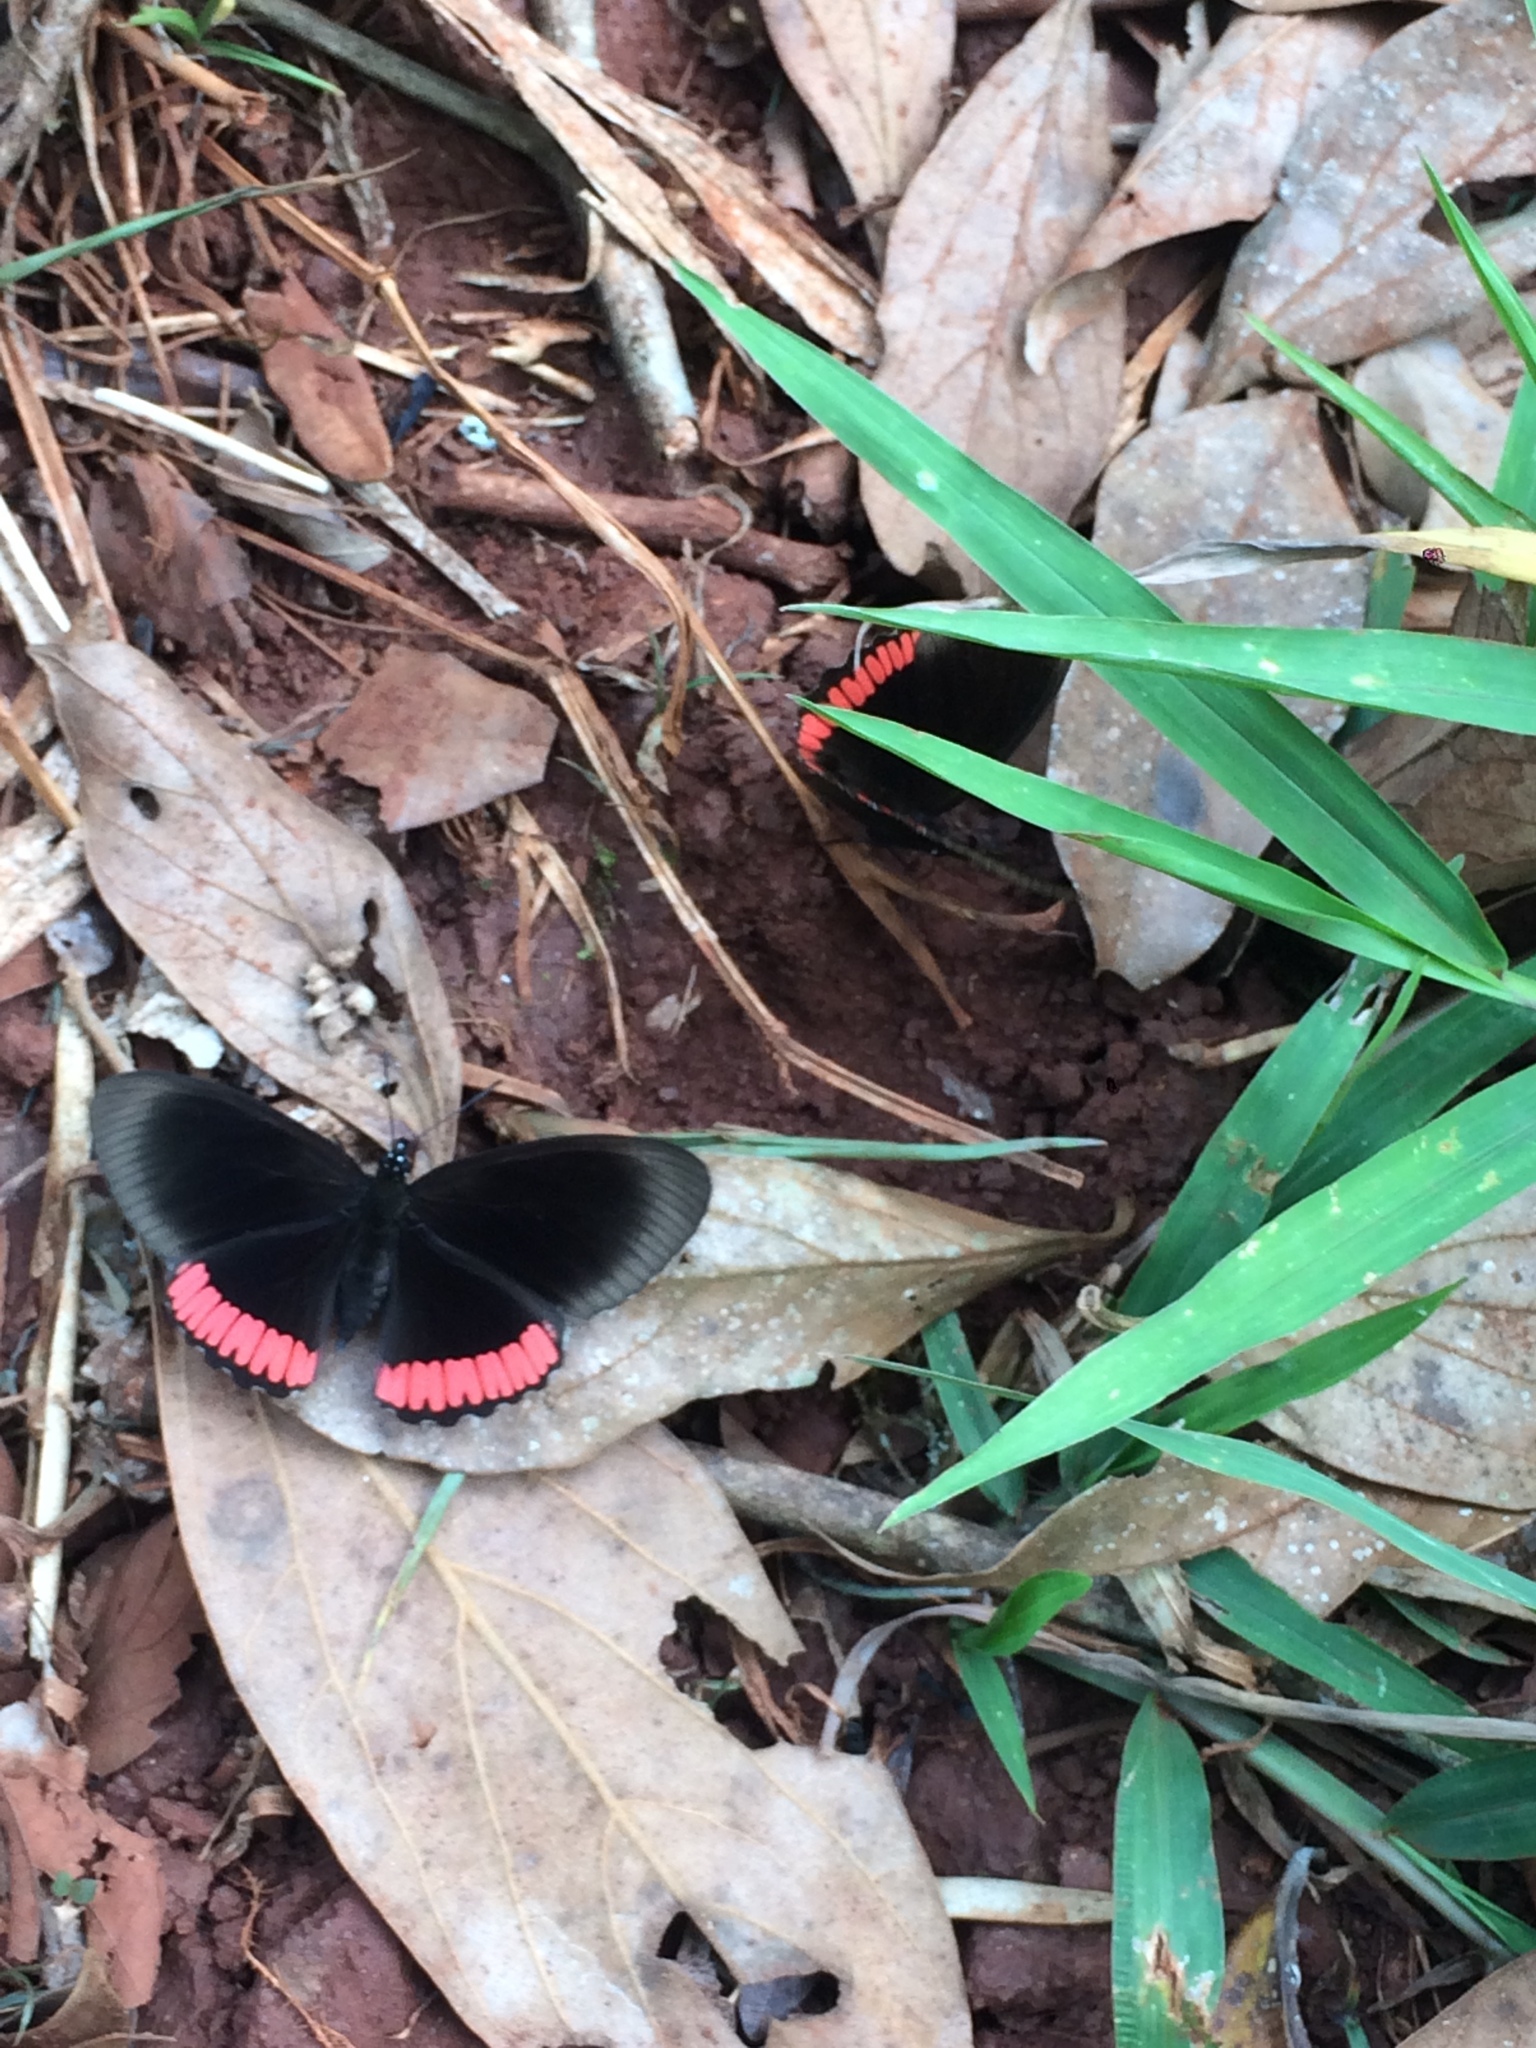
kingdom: Animalia
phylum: Arthropoda
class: Insecta
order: Lepidoptera
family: Sesiidae
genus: Sesia
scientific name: Sesia Biblis hyperia
